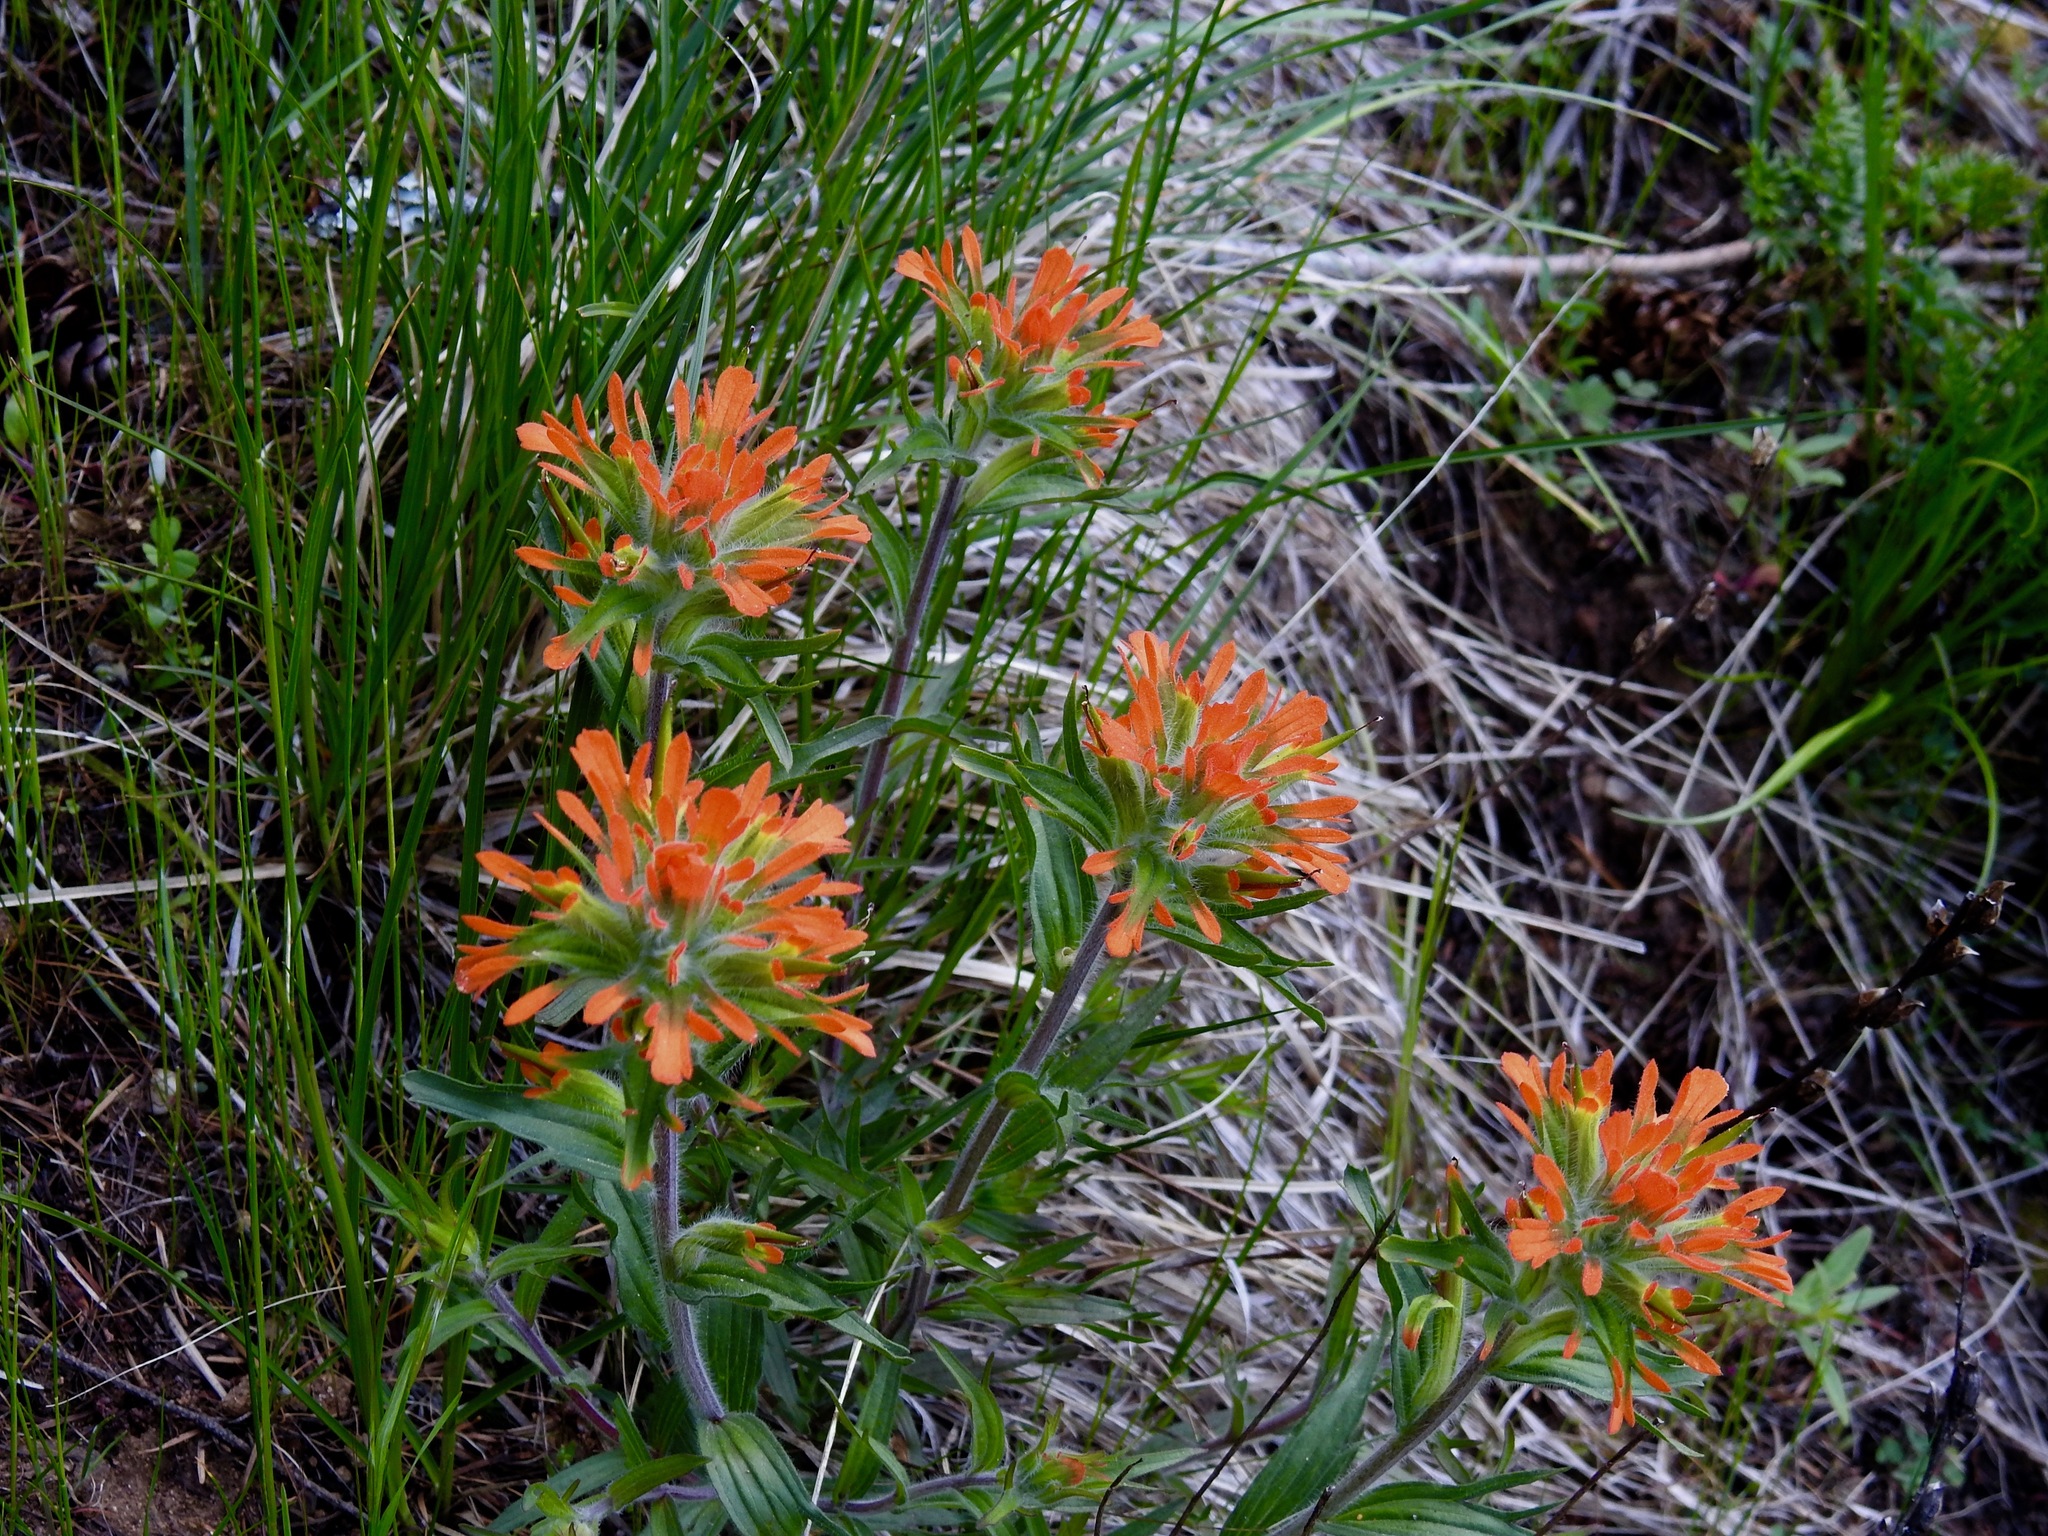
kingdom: Plantae
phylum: Tracheophyta
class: Magnoliopsida
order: Lamiales
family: Orobanchaceae
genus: Castilleja
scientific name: Castilleja hispida
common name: Bristly paintbrush
